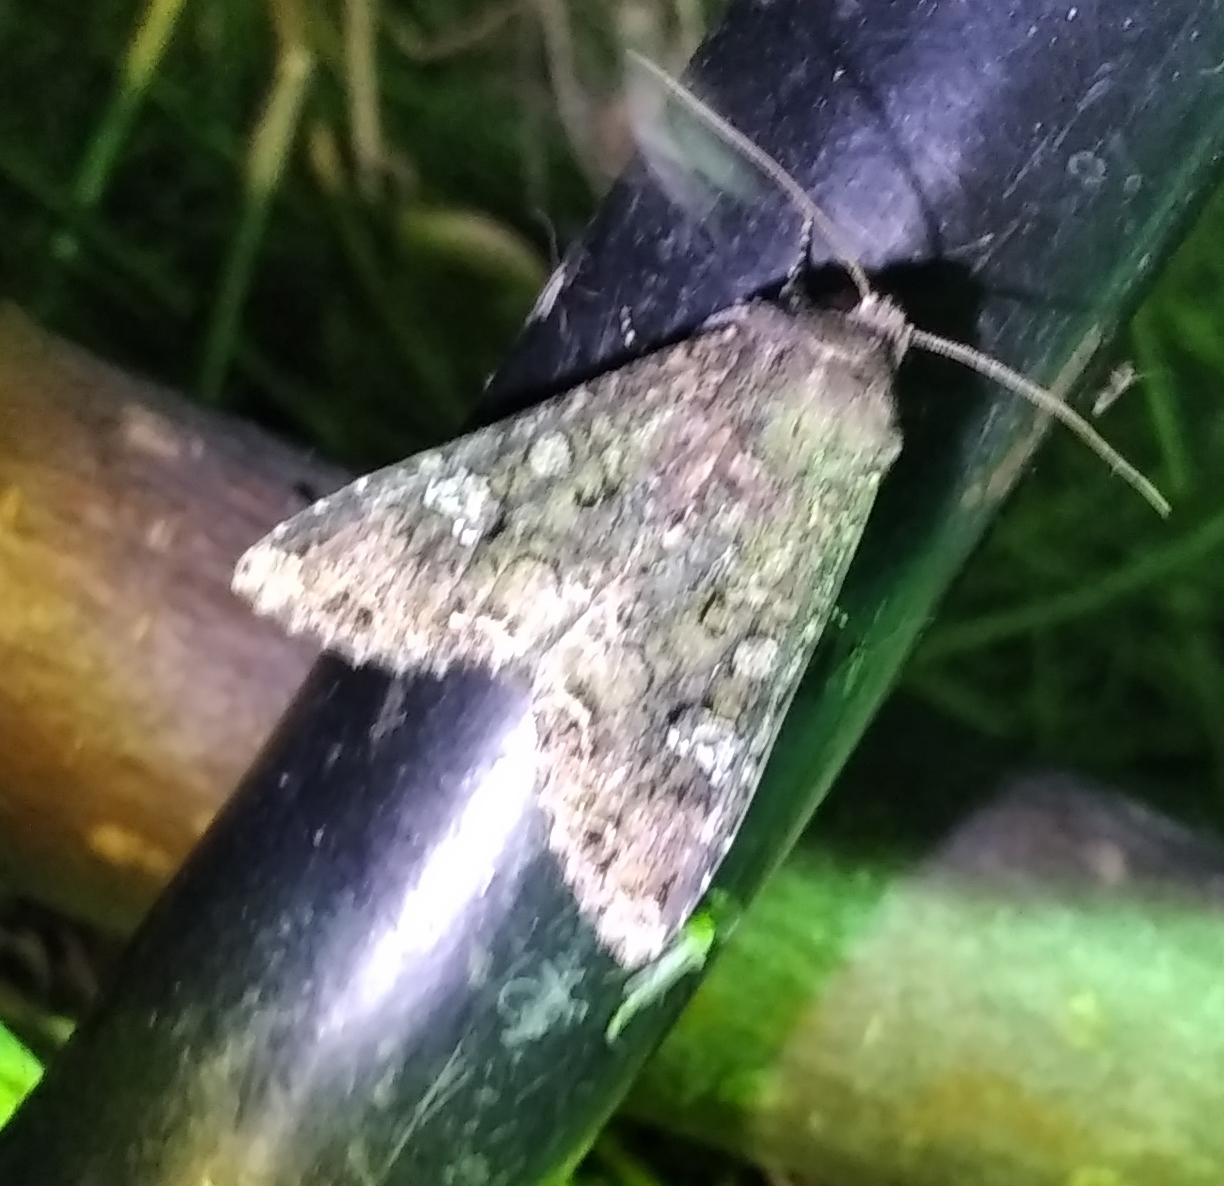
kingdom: Animalia
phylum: Arthropoda
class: Insecta
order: Lepidoptera
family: Noctuidae
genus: Mamestra
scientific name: Mamestra brassicae
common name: Cabbage moth
